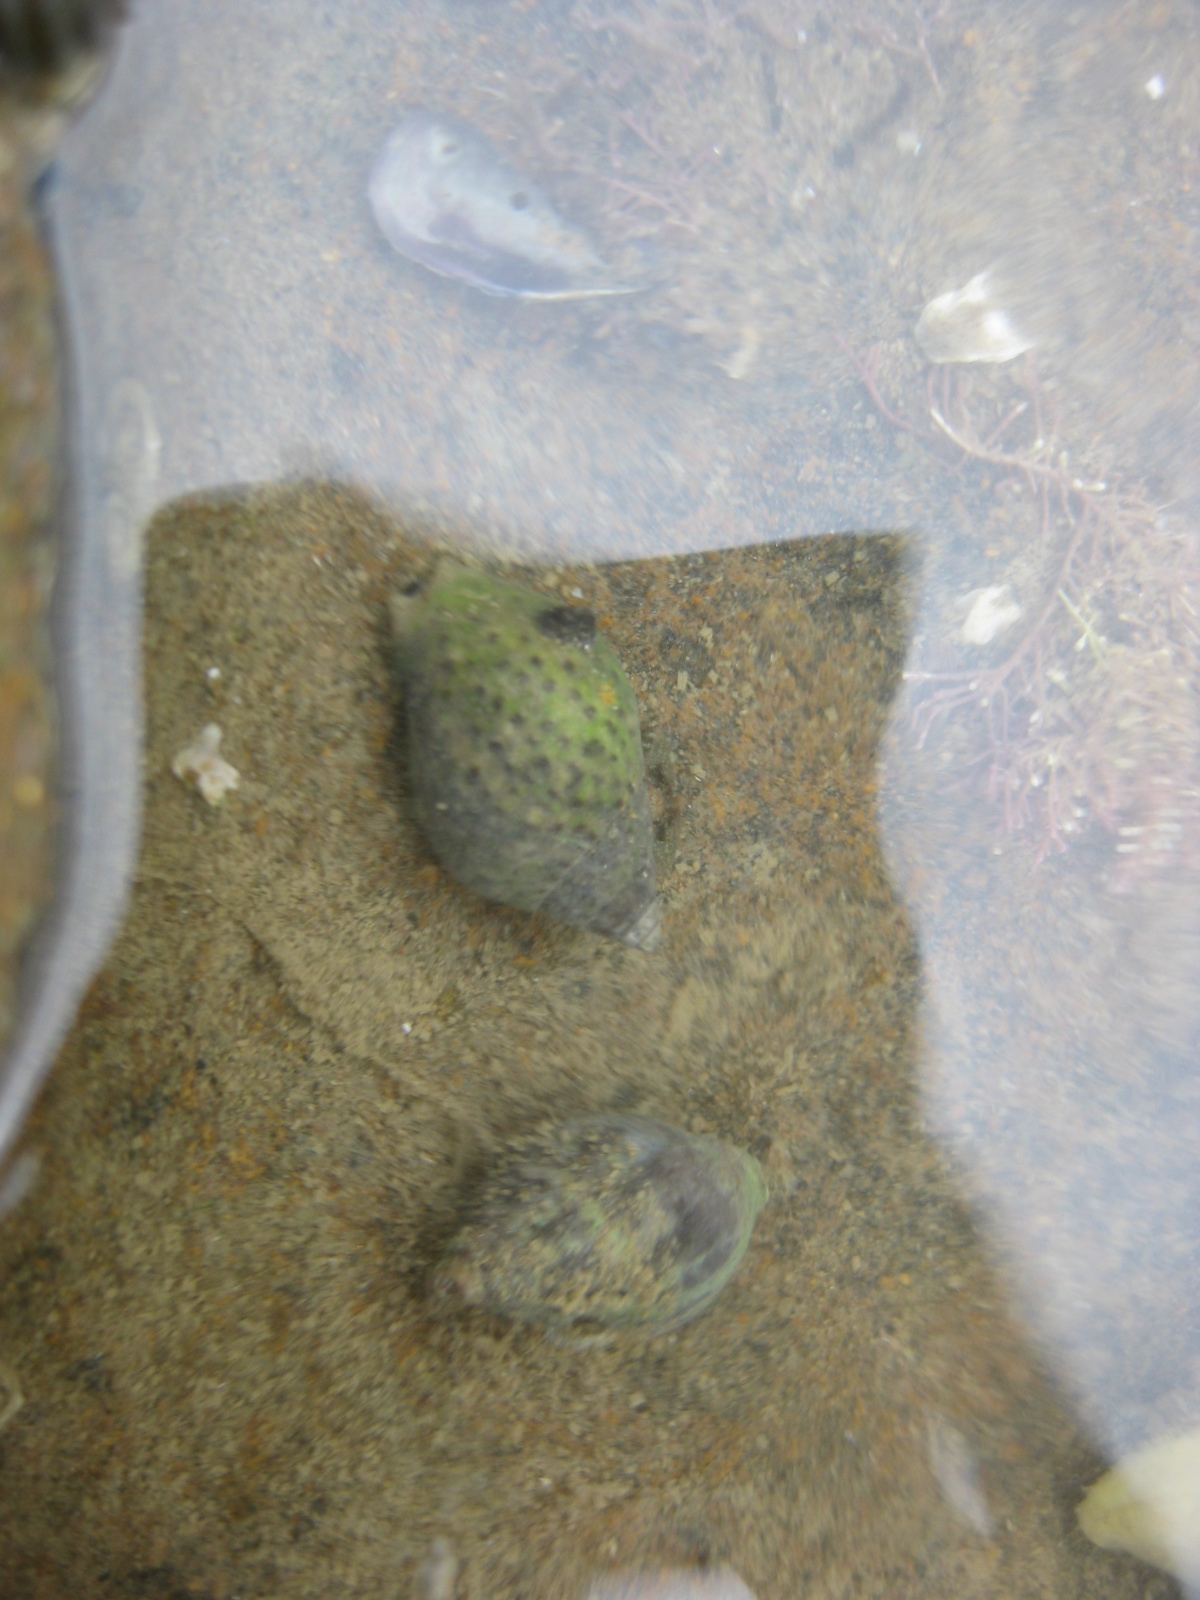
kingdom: Animalia
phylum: Mollusca
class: Gastropoda
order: Neogastropoda
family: Cominellidae
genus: Cominella
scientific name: Cominella maculosa
